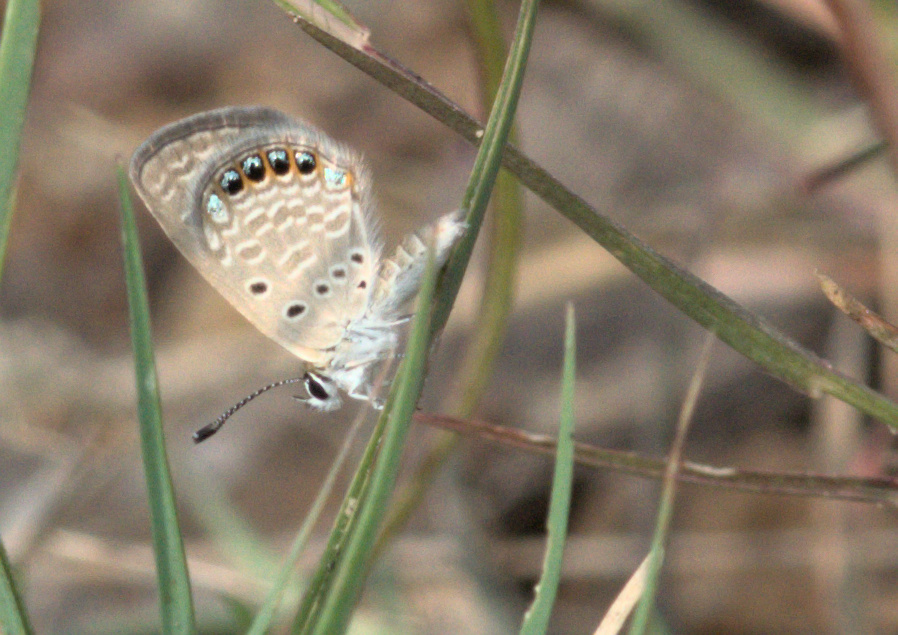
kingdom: Animalia
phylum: Arthropoda
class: Insecta
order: Lepidoptera
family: Lycaenidae
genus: Freyeria
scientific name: Freyeria putli
